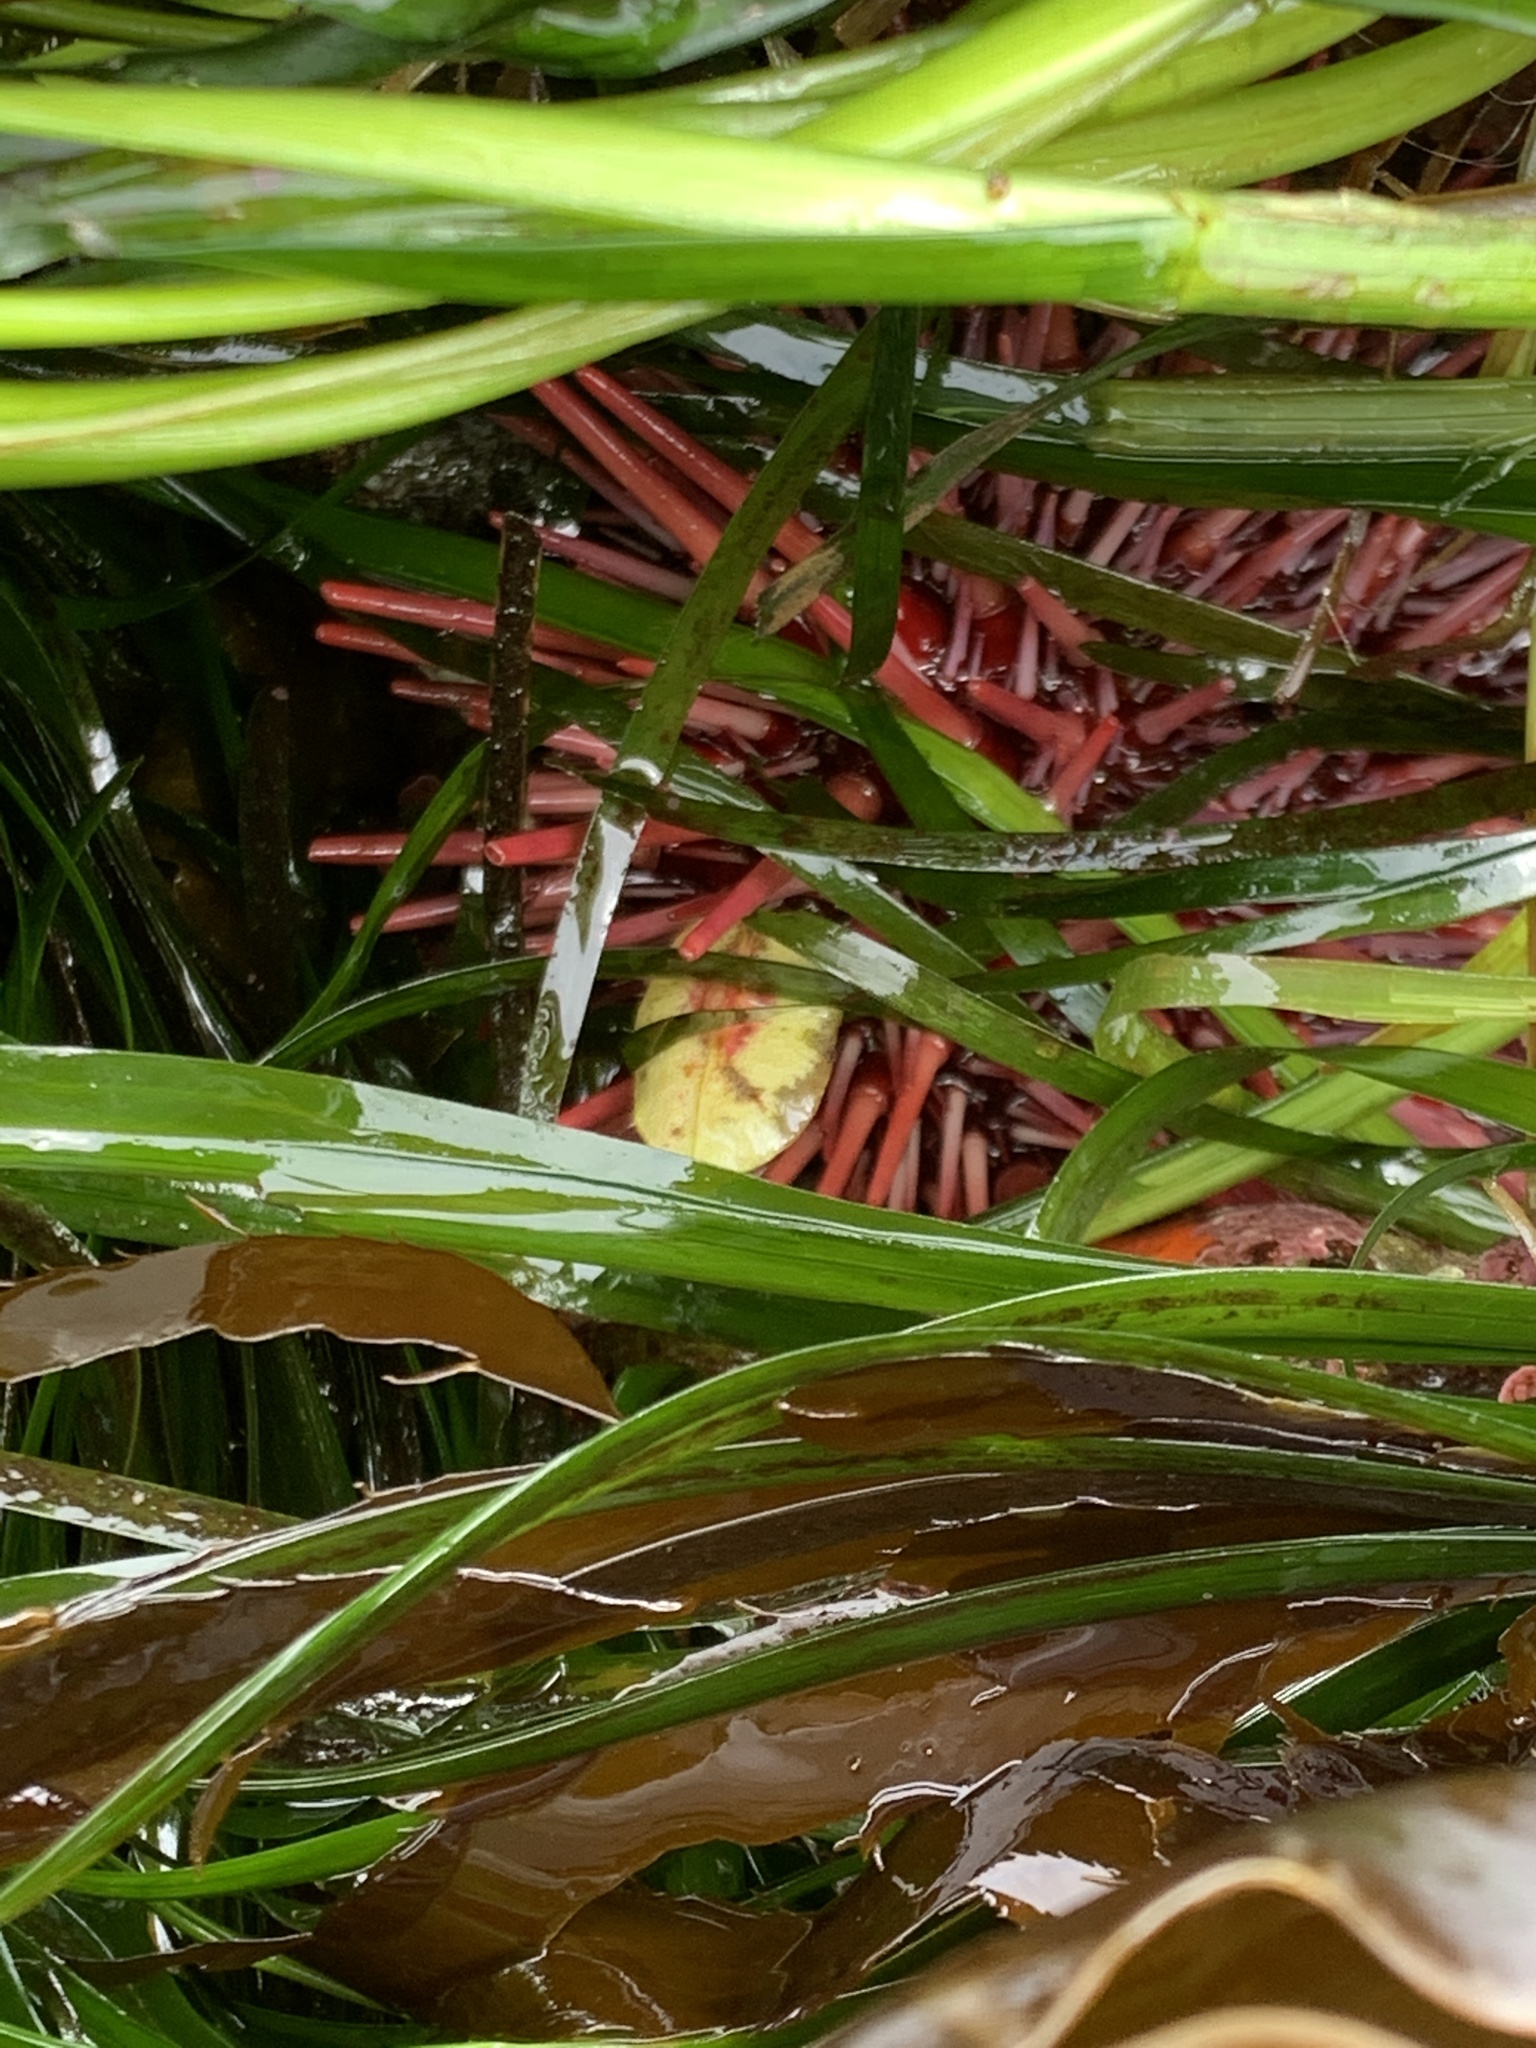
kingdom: Animalia
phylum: Echinodermata
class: Echinoidea
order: Camarodonta
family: Strongylocentrotidae
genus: Mesocentrotus
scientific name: Mesocentrotus franciscanus
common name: Red sea urchin
